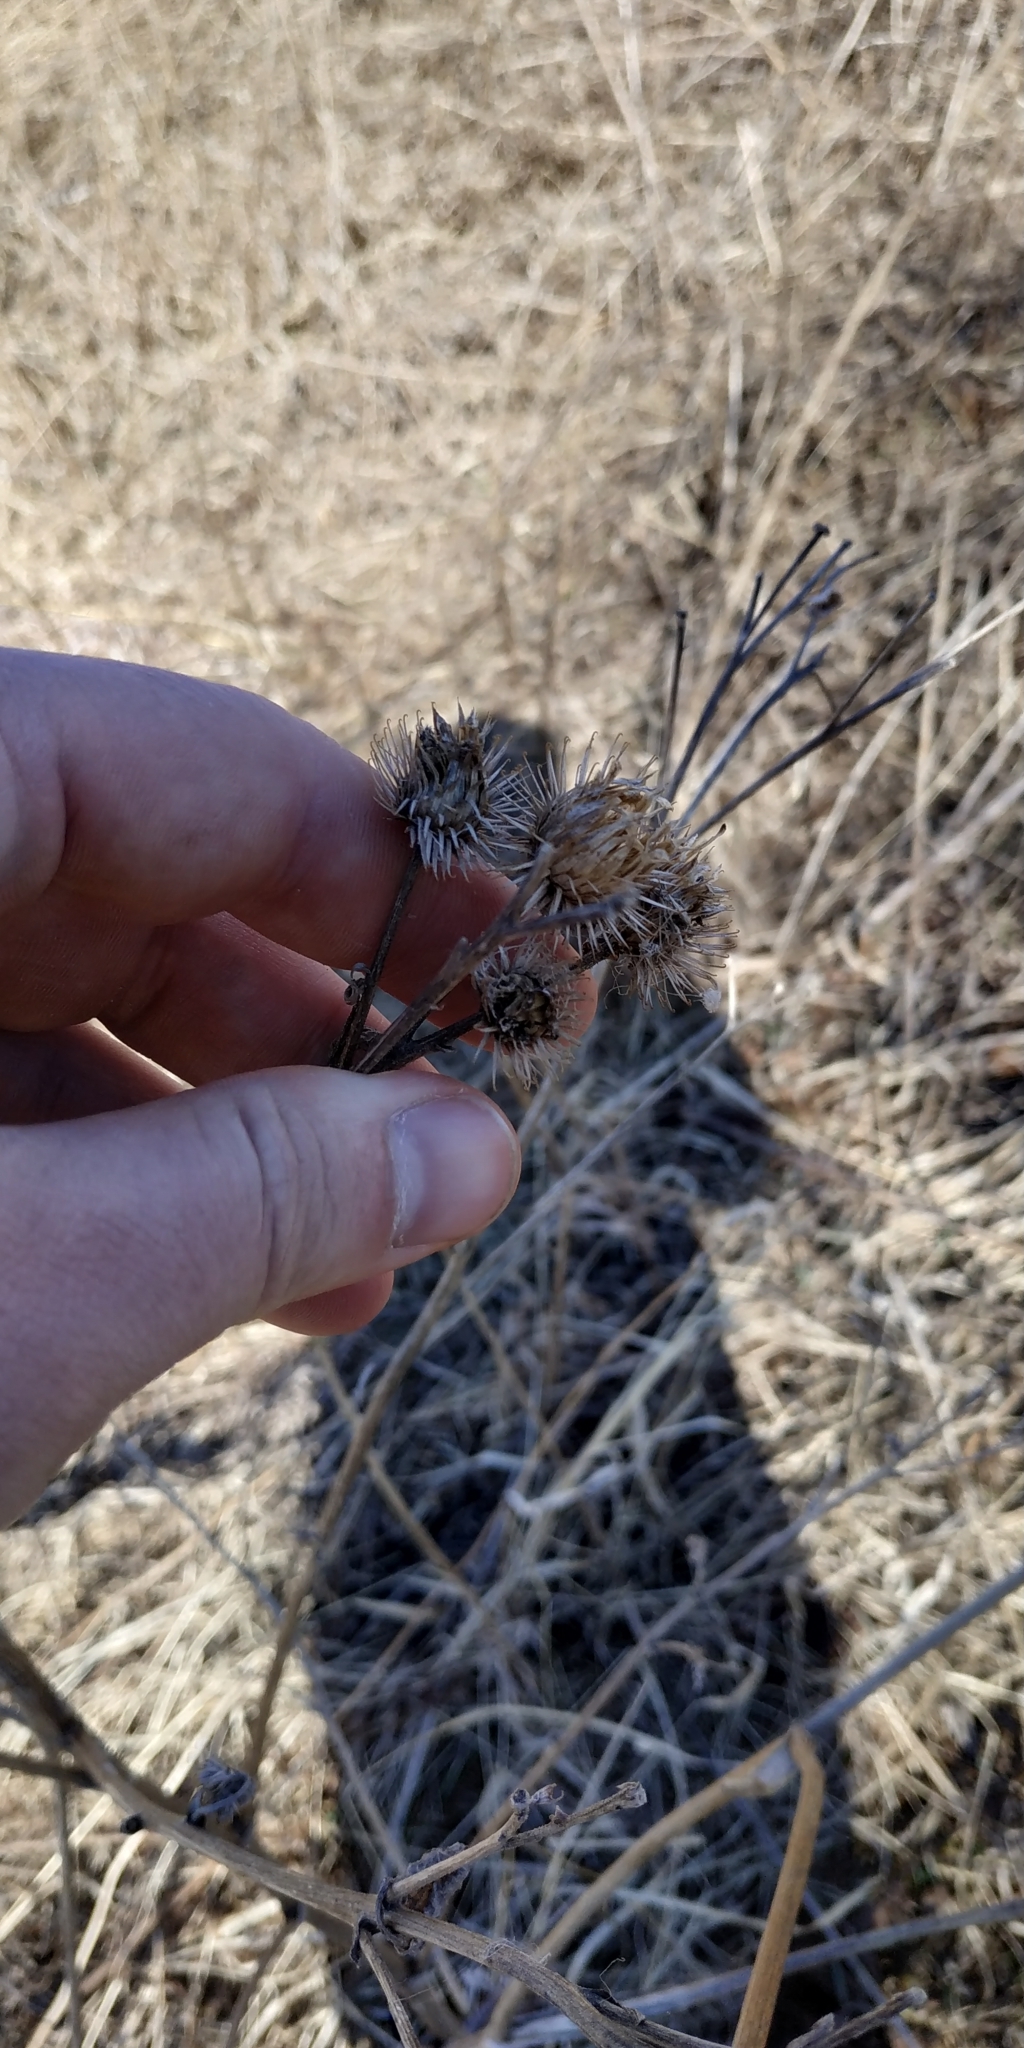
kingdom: Plantae
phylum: Tracheophyta
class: Magnoliopsida
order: Asterales
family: Asteraceae
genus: Arctium
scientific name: Arctium tomentosum
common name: Woolly burdock
